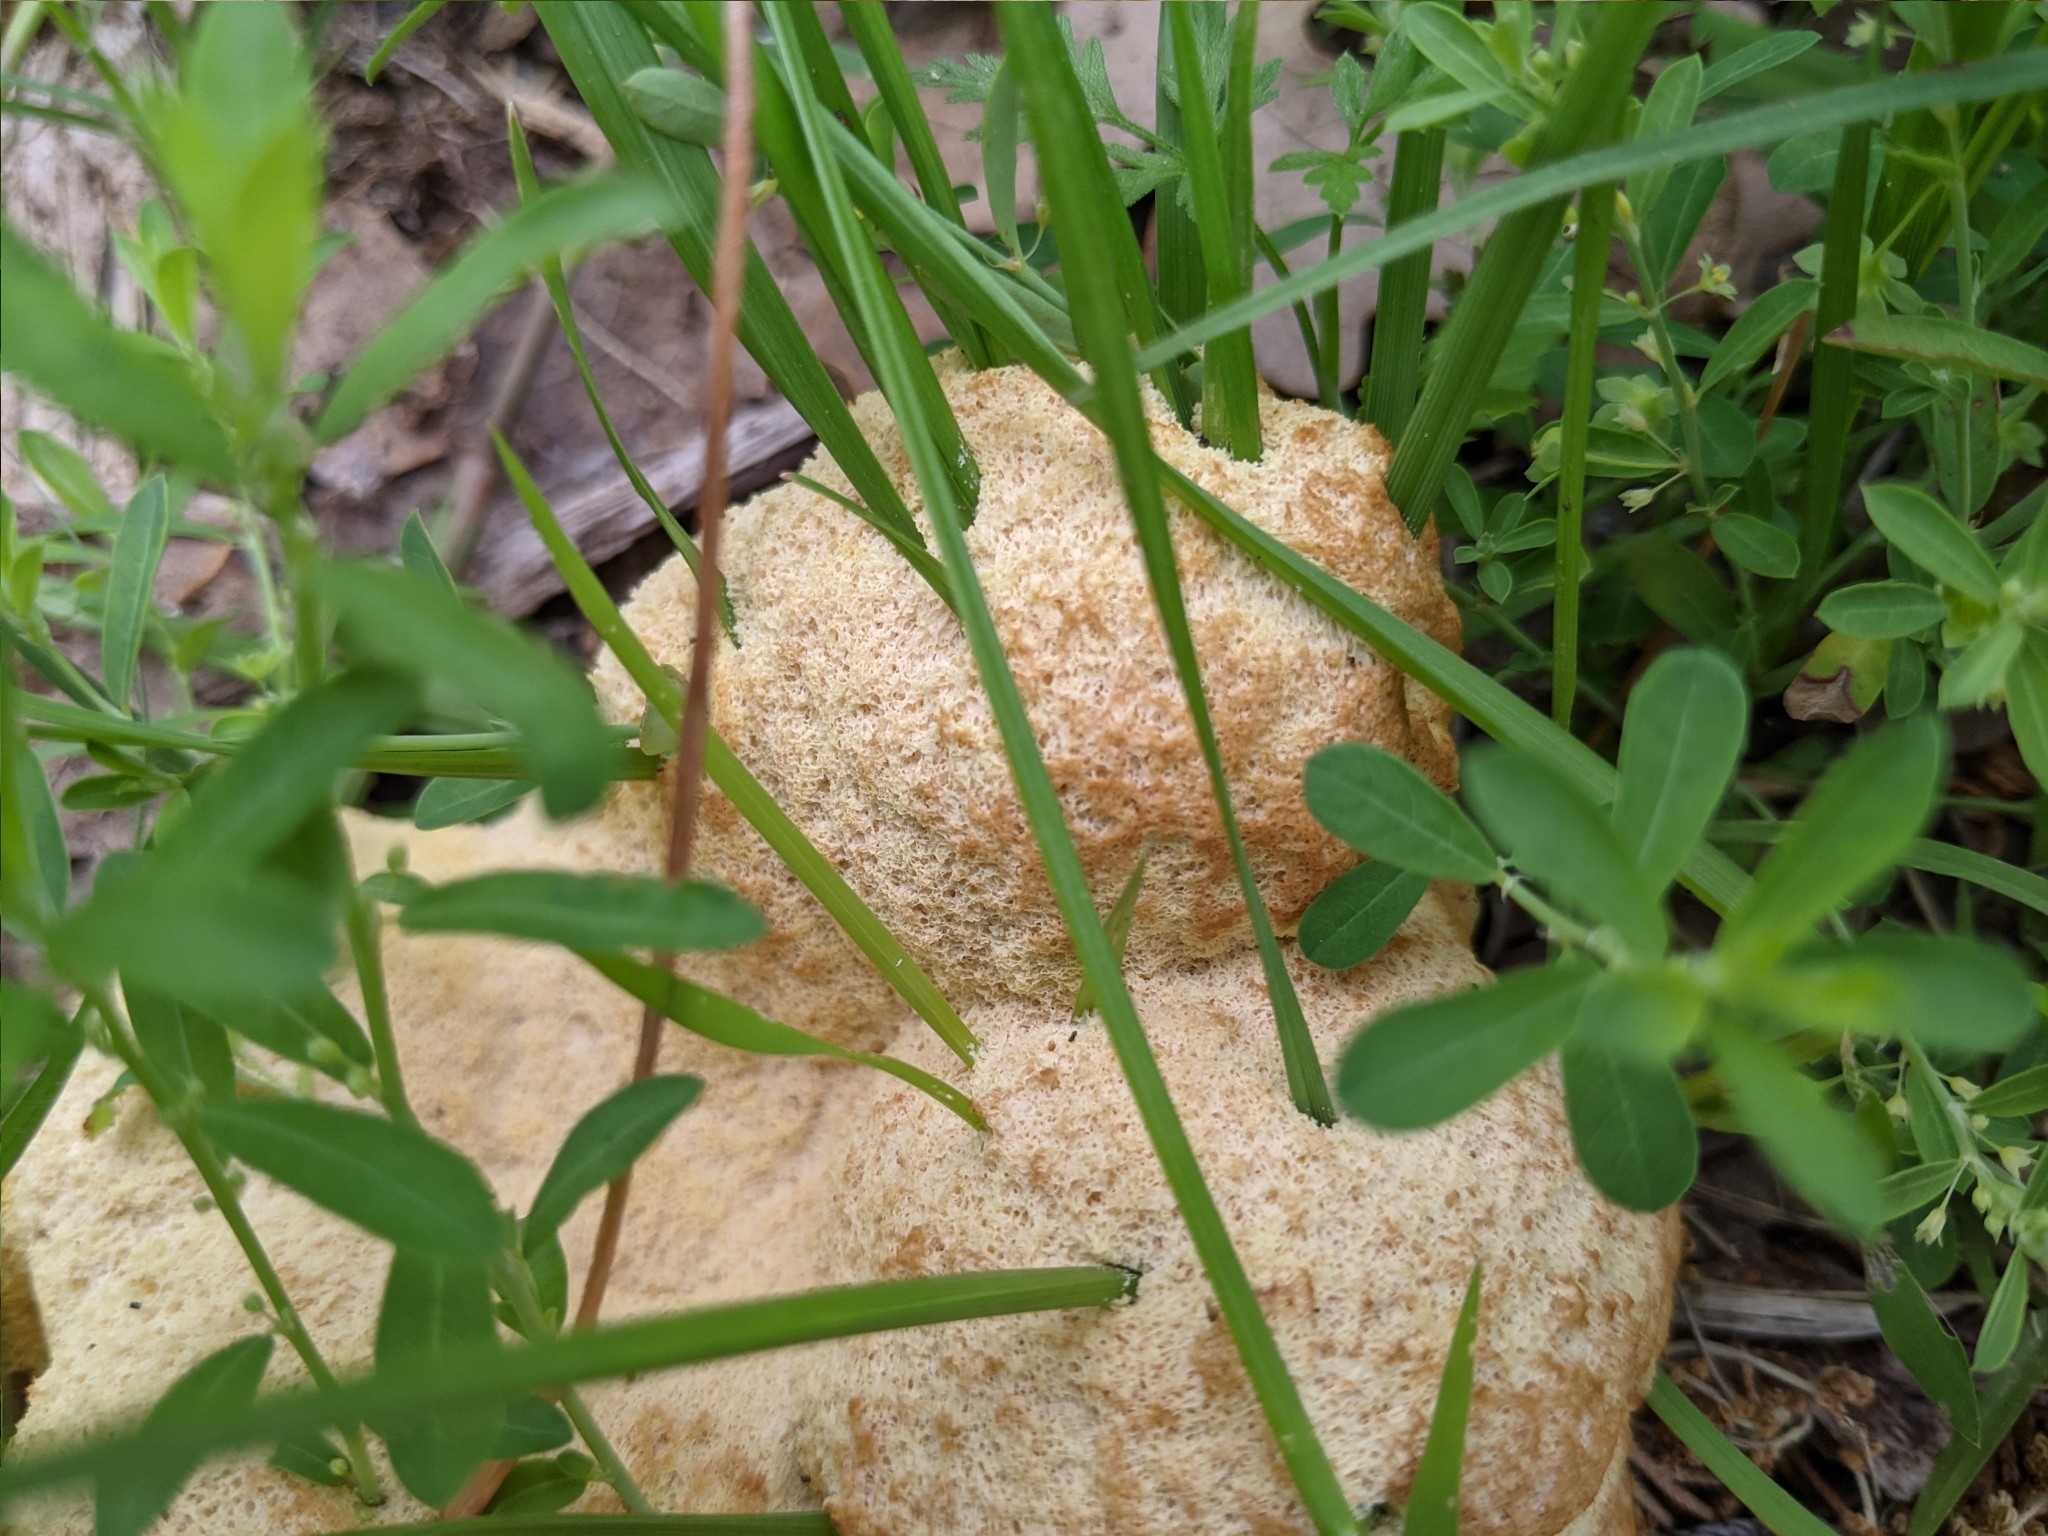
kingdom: Protozoa
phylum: Mycetozoa
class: Myxomycetes
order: Physarales
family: Physaraceae
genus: Fuligo
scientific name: Fuligo septica
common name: Dog vomit slime mold
